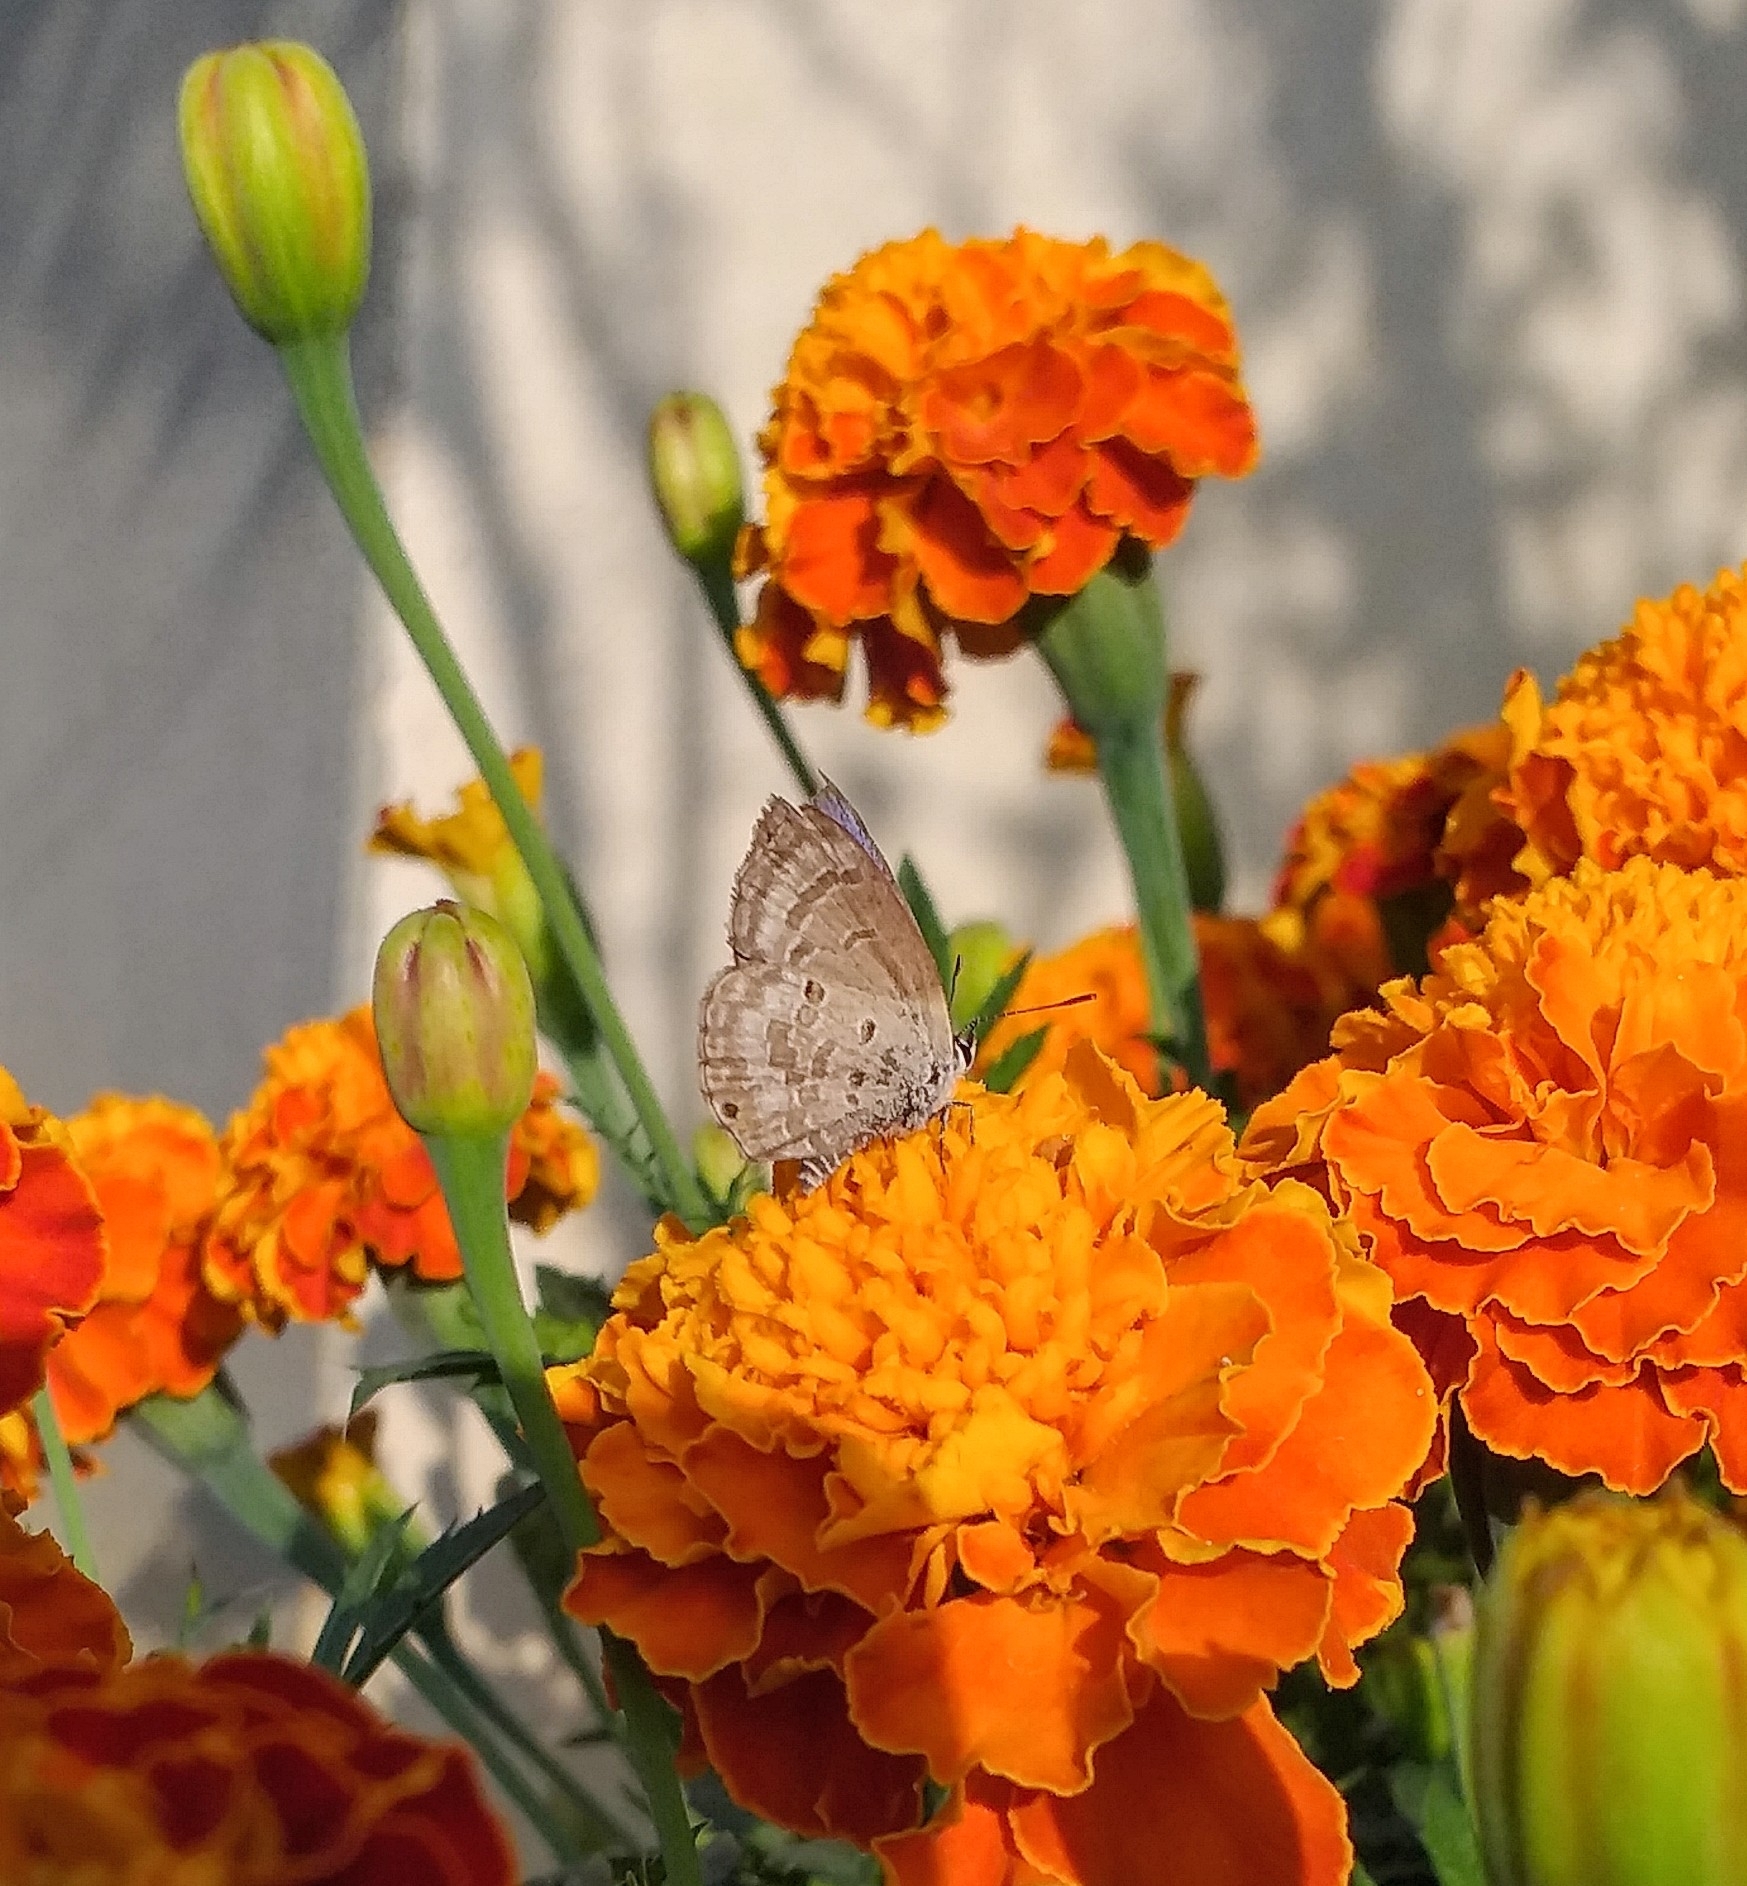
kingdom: Animalia
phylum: Arthropoda
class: Insecta
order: Lepidoptera
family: Lycaenidae
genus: Luthrodes
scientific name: Luthrodes pandava
